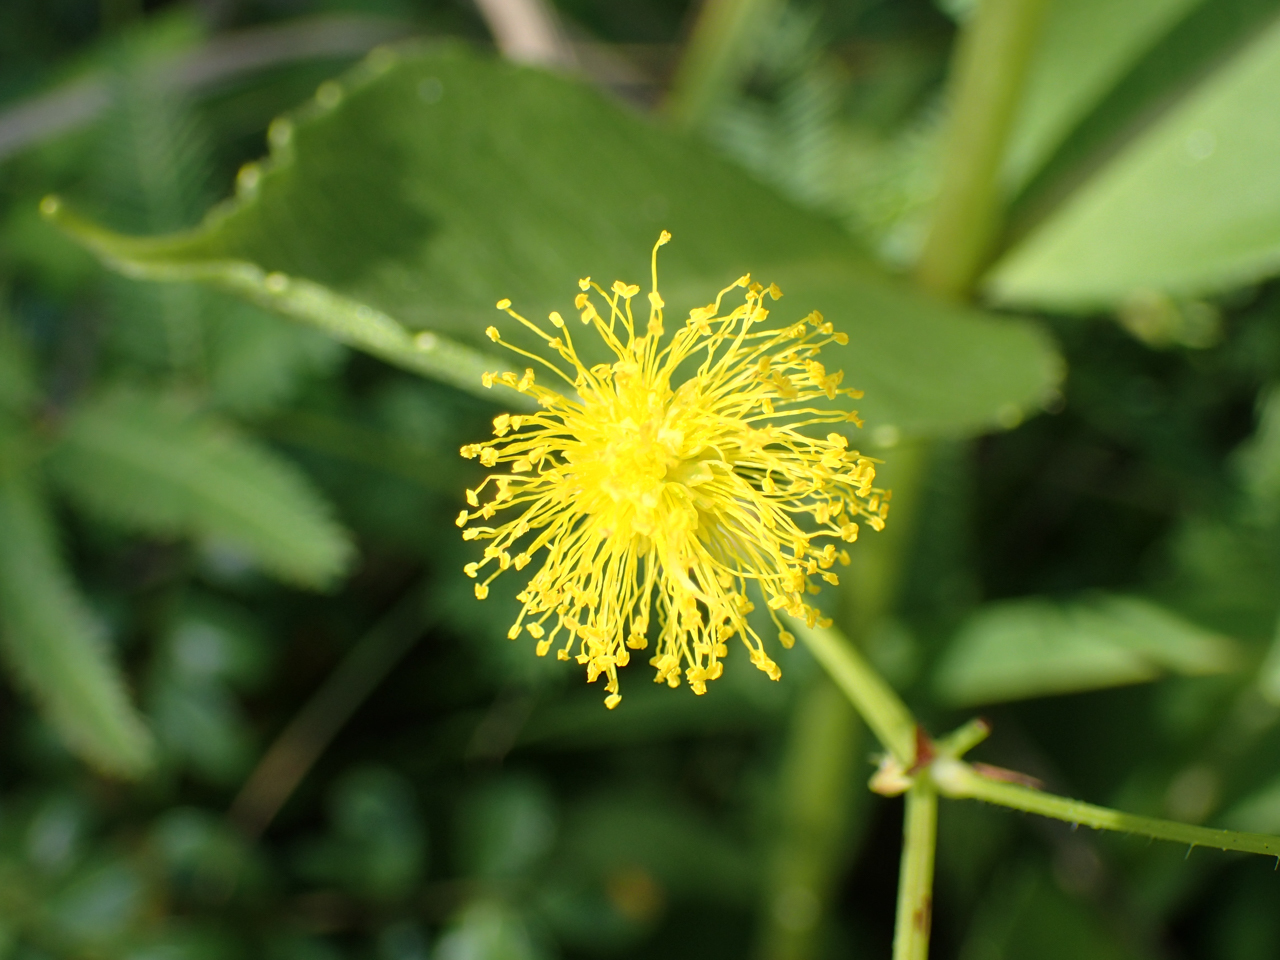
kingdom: Plantae
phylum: Tracheophyta
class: Magnoliopsida
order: Fabales
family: Fabaceae
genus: Neptunia
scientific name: Neptunia lutea
